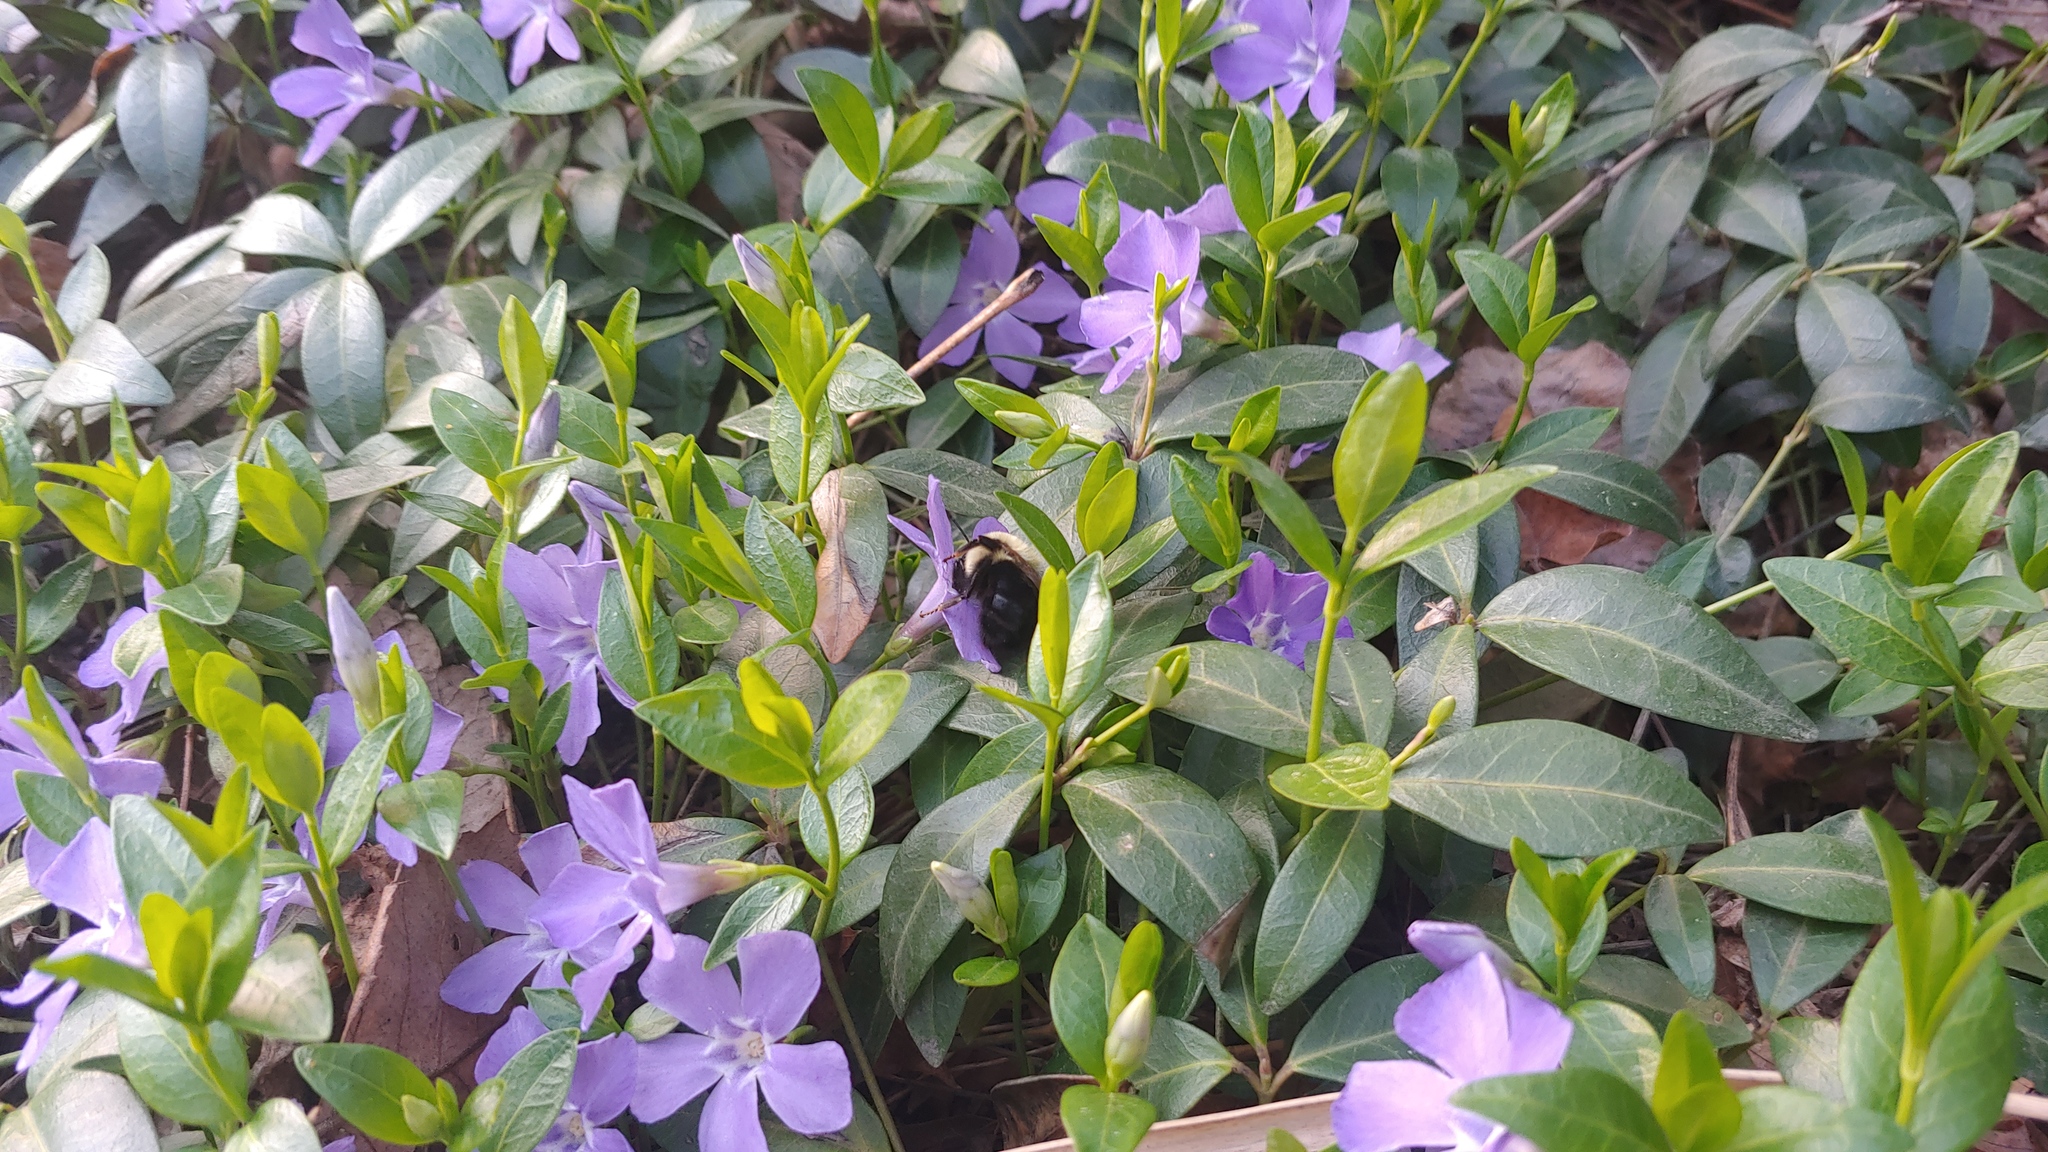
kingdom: Animalia
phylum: Arthropoda
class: Insecta
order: Hymenoptera
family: Apidae
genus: Bombus
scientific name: Bombus bimaculatus
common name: Two-spotted bumble bee
